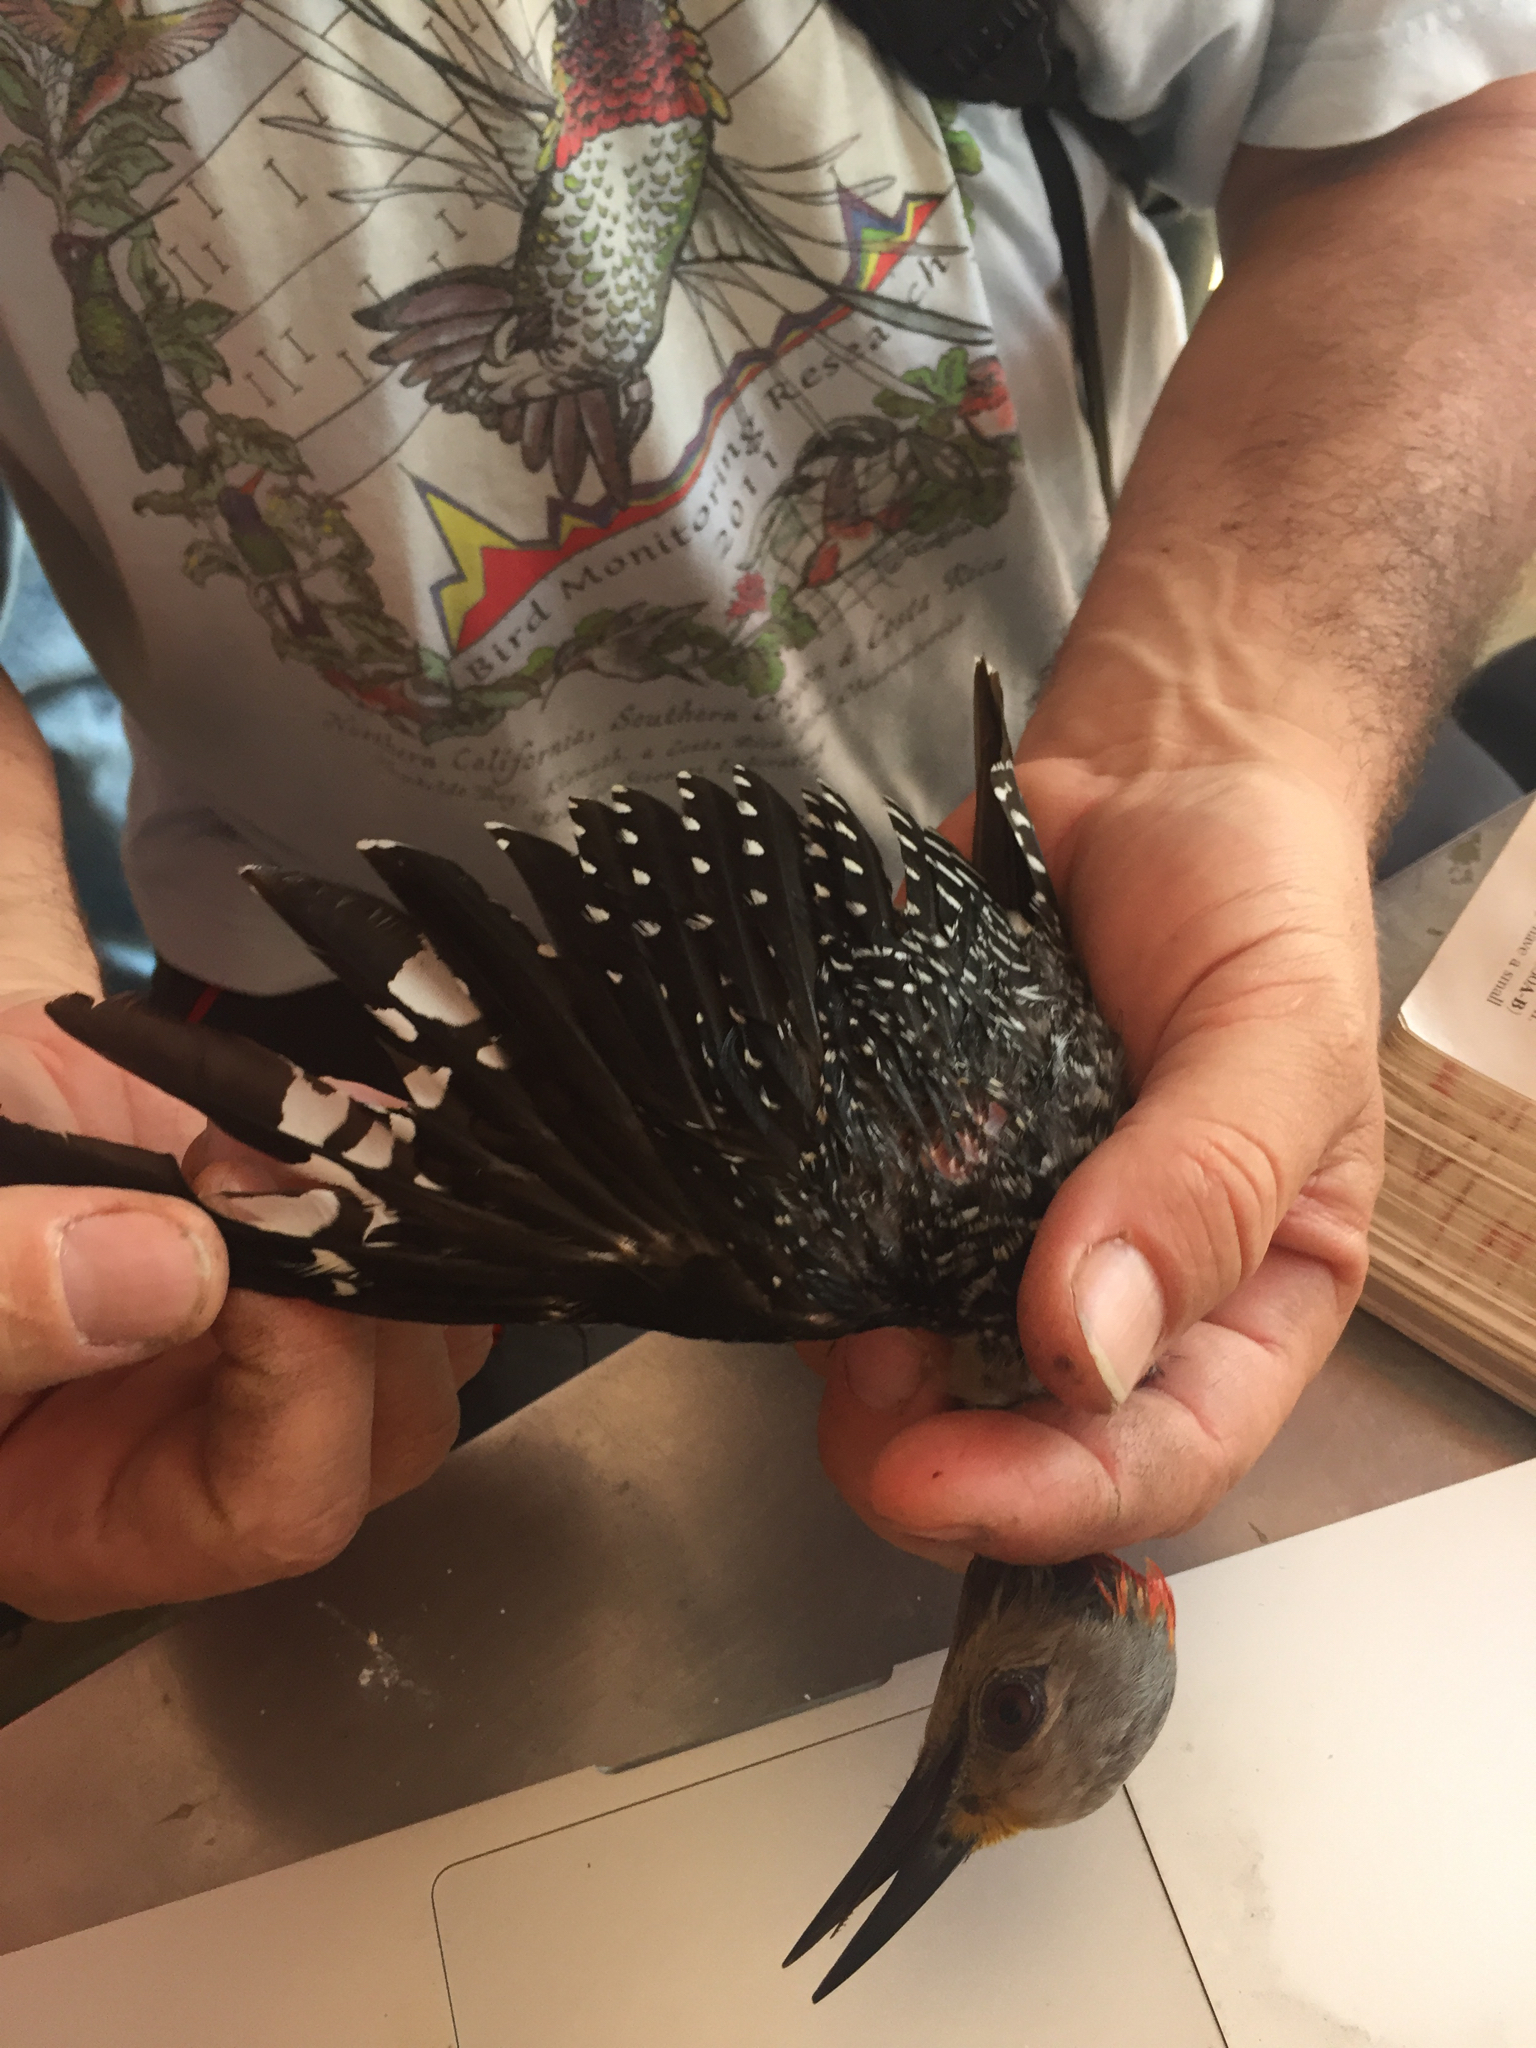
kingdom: Animalia
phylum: Chordata
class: Aves
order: Piciformes
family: Picidae
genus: Melanerpes
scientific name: Melanerpes aurifrons
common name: Golden-fronted woodpecker
